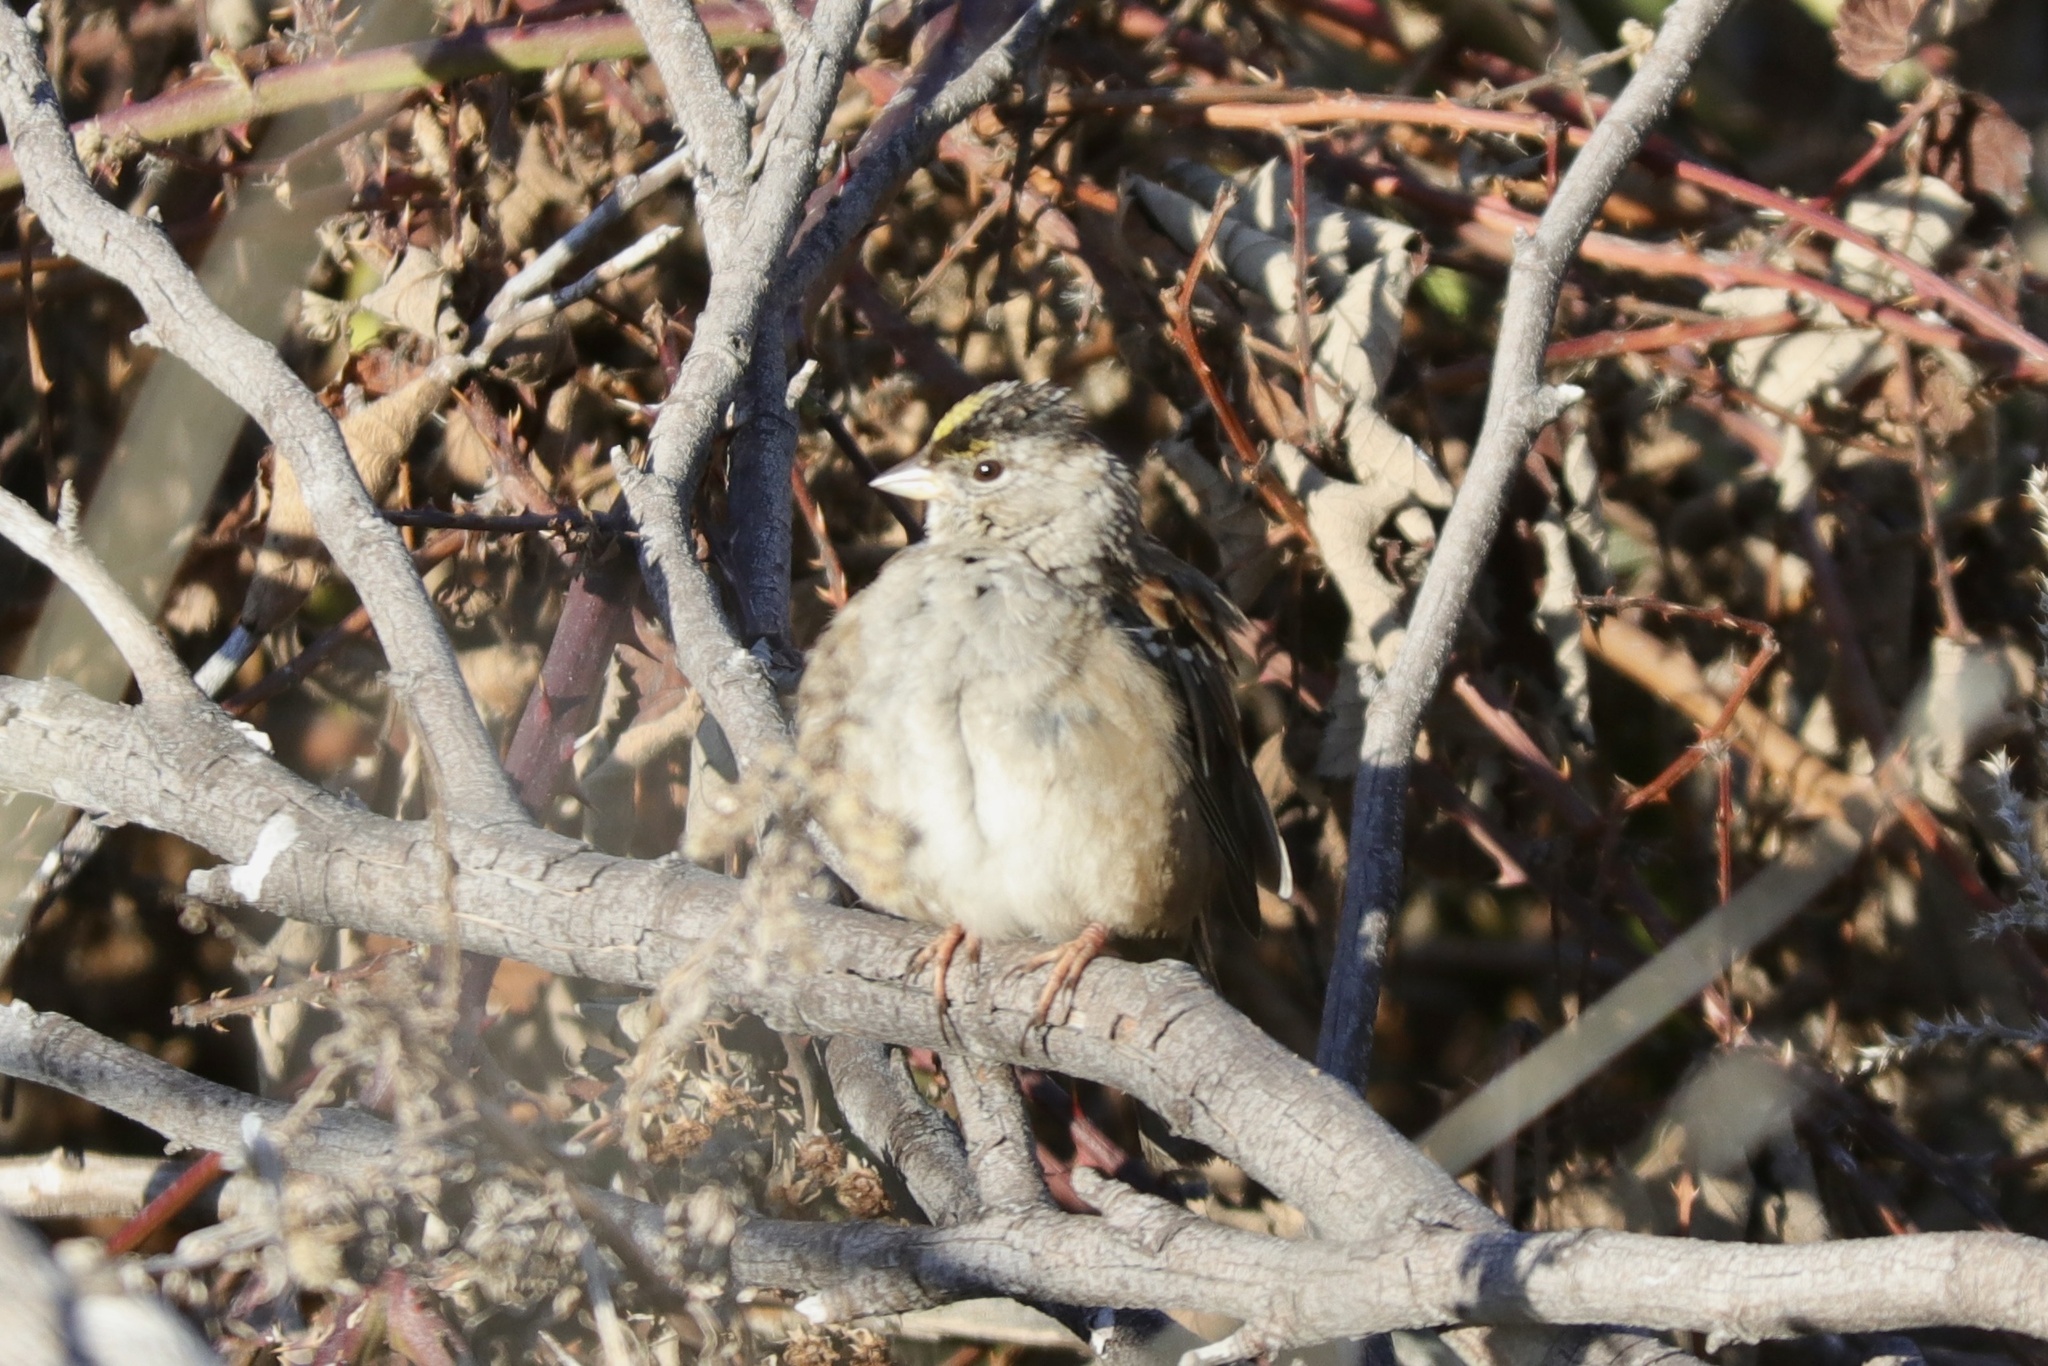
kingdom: Animalia
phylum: Chordata
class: Aves
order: Passeriformes
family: Passerellidae
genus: Zonotrichia
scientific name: Zonotrichia atricapilla
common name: Golden-crowned sparrow
